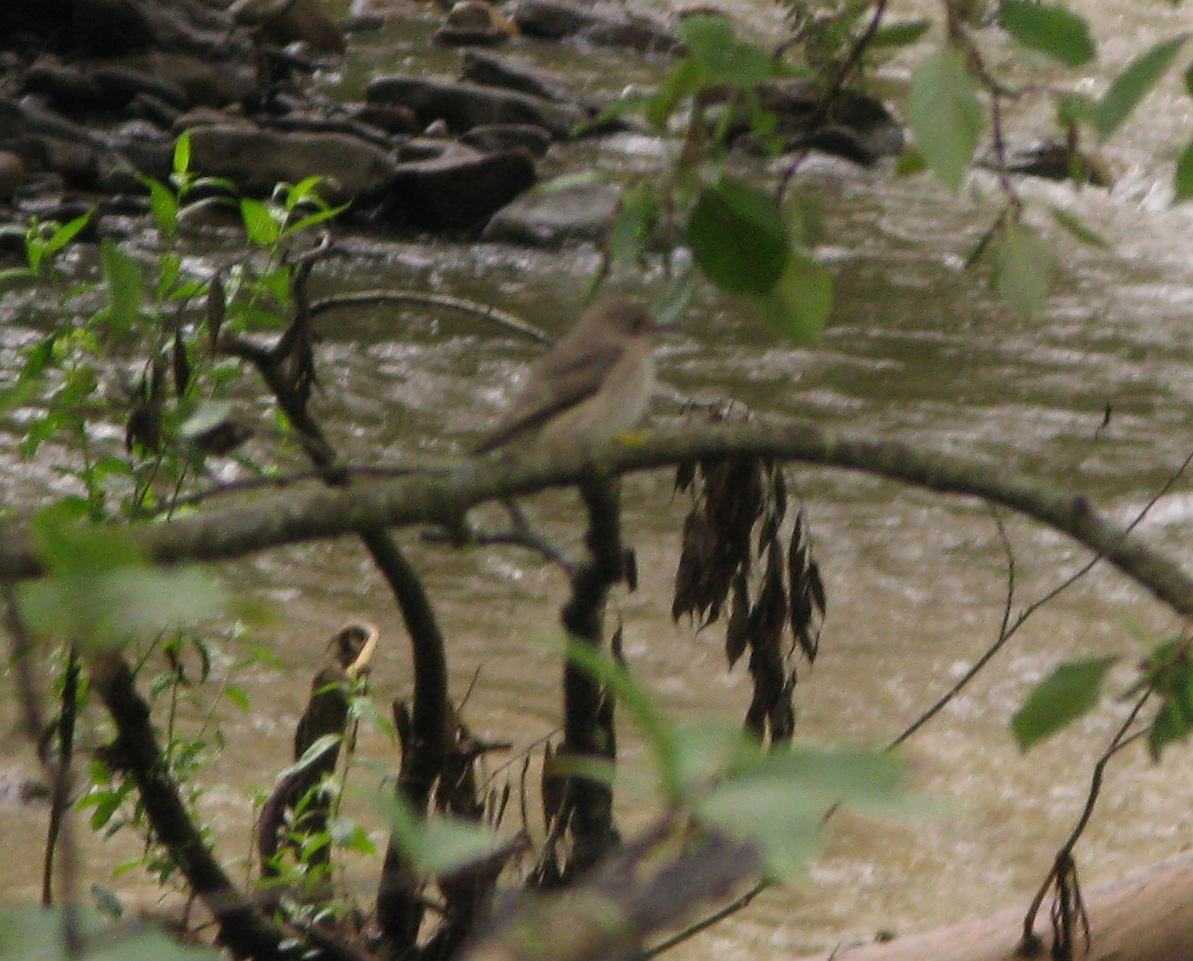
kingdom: Animalia
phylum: Chordata
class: Aves
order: Passeriformes
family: Muscicapidae
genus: Muscicapa
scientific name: Muscicapa striata
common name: Spotted flycatcher
